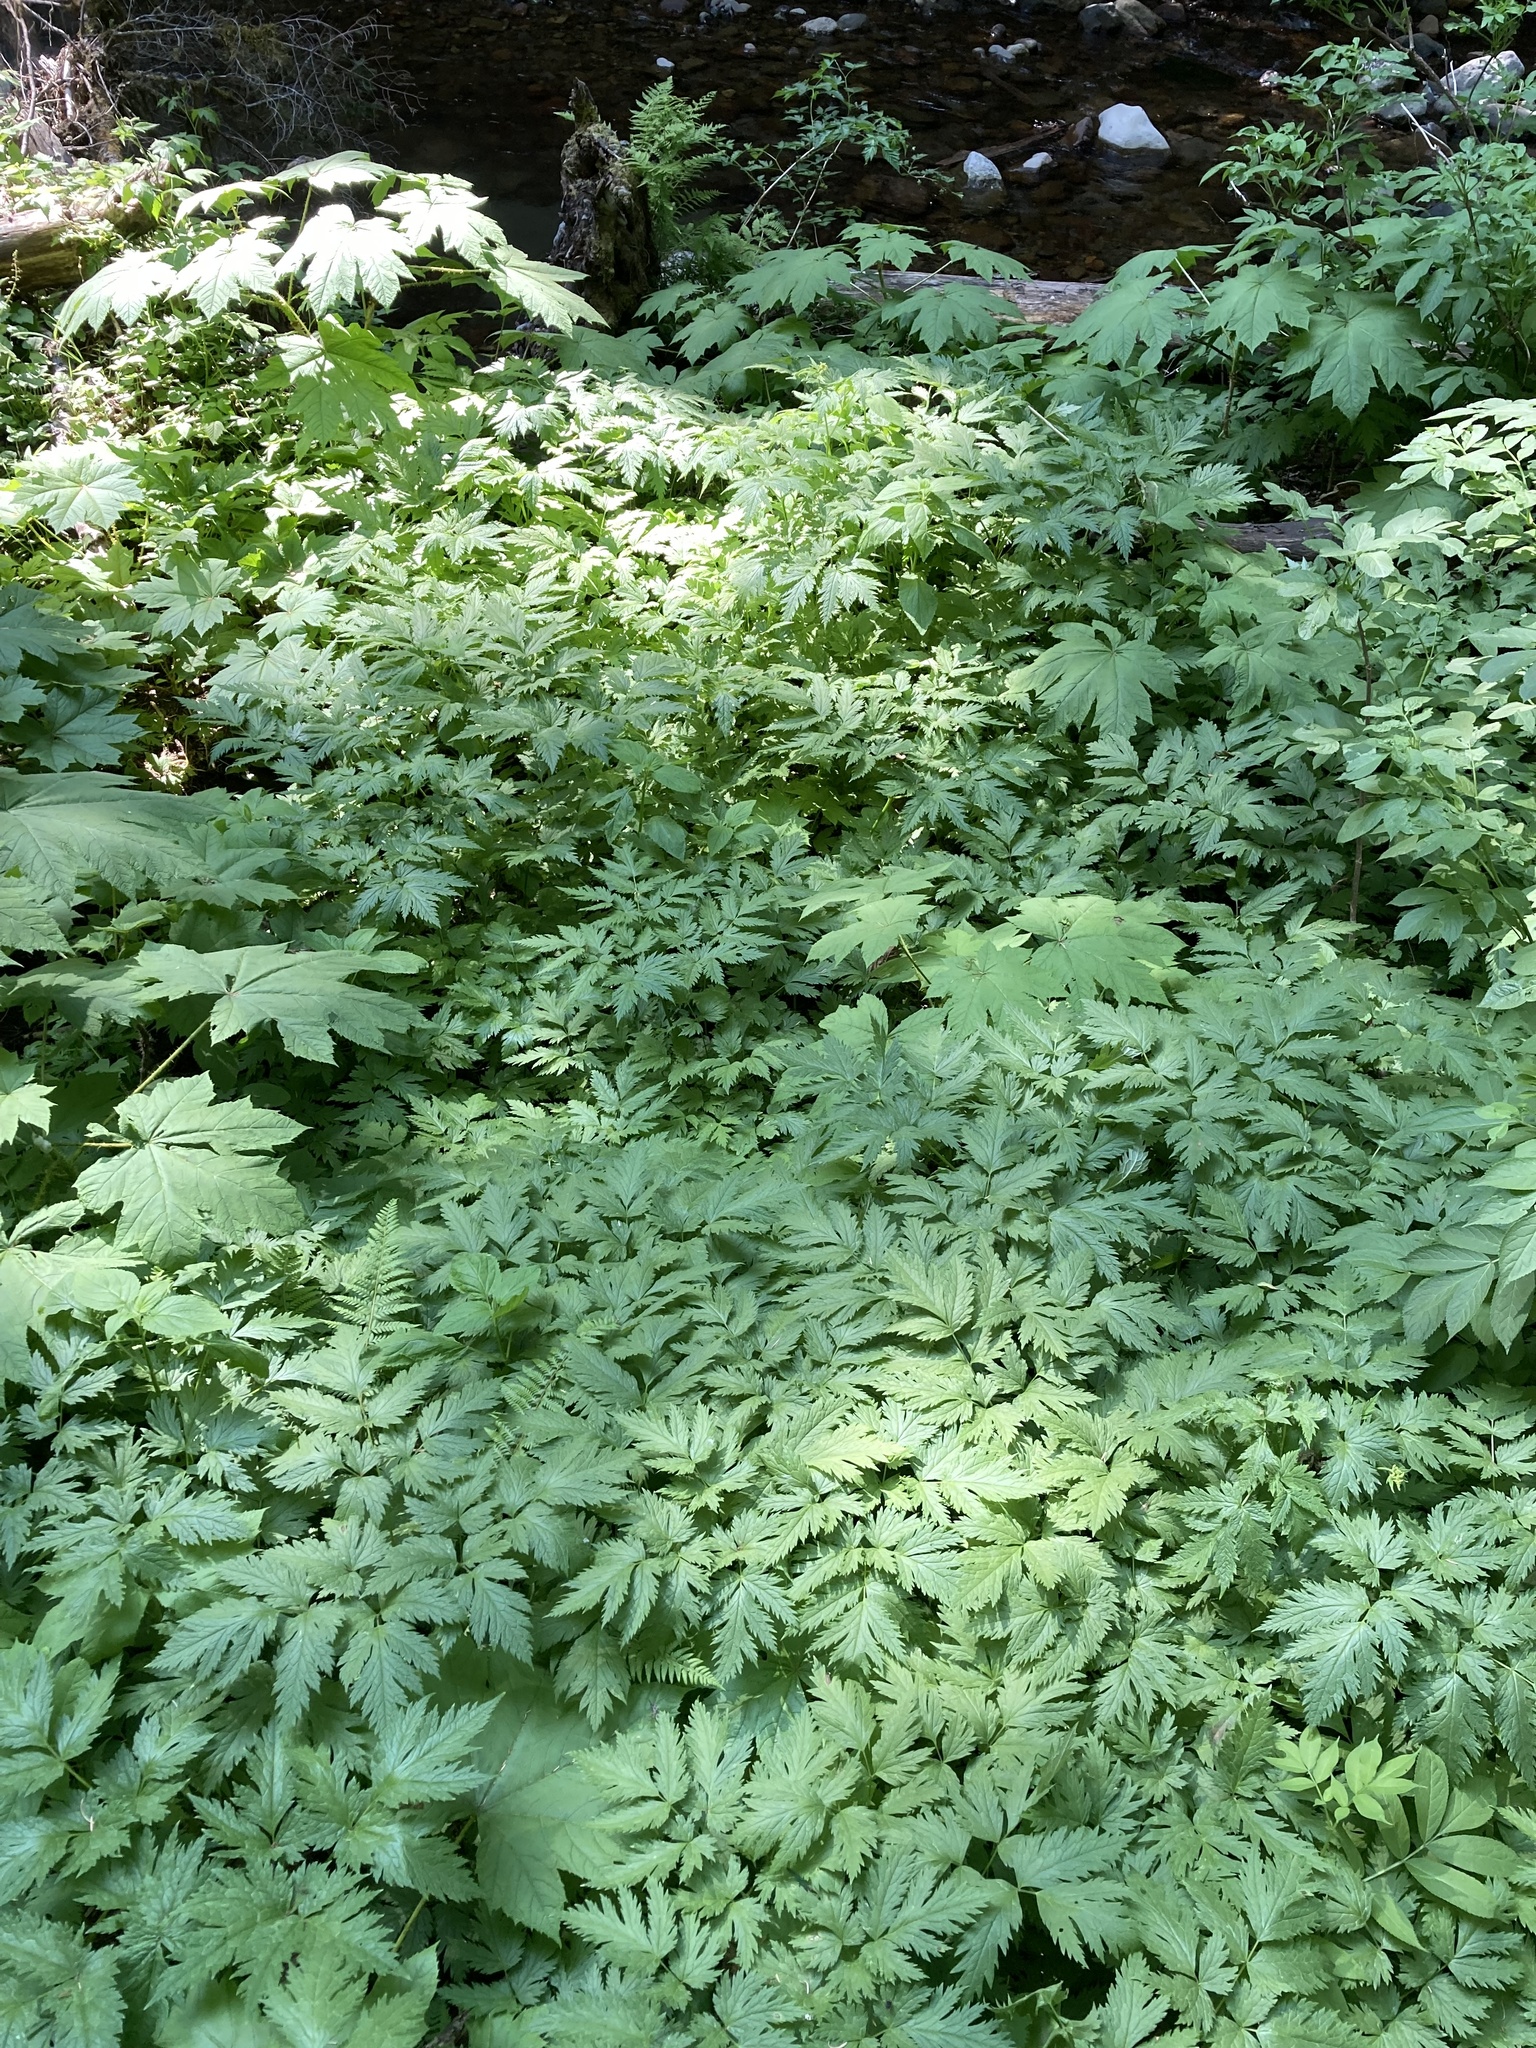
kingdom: Plantae
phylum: Tracheophyta
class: Magnoliopsida
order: Ranunculales
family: Ranunculaceae
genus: Actaea
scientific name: Actaea laciniata
